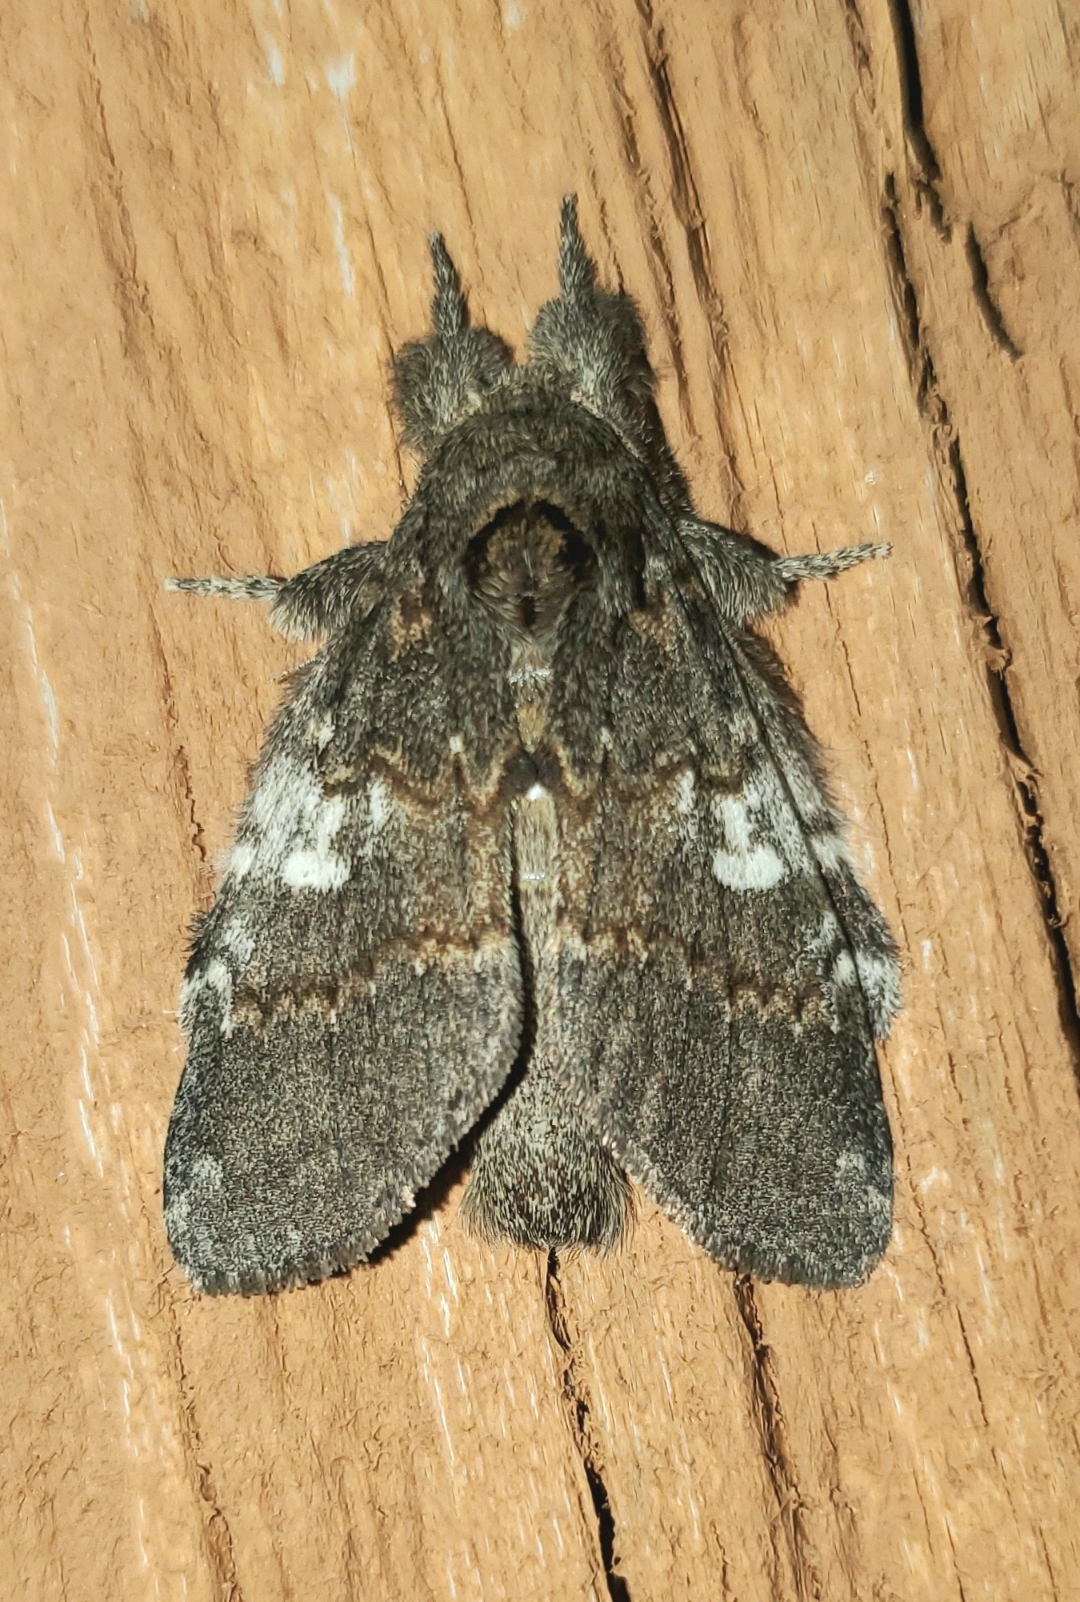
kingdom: Animalia
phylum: Arthropoda
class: Insecta
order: Lepidoptera
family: Notodontidae
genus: Peridea
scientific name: Peridea angulosa
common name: Angulose prominent
